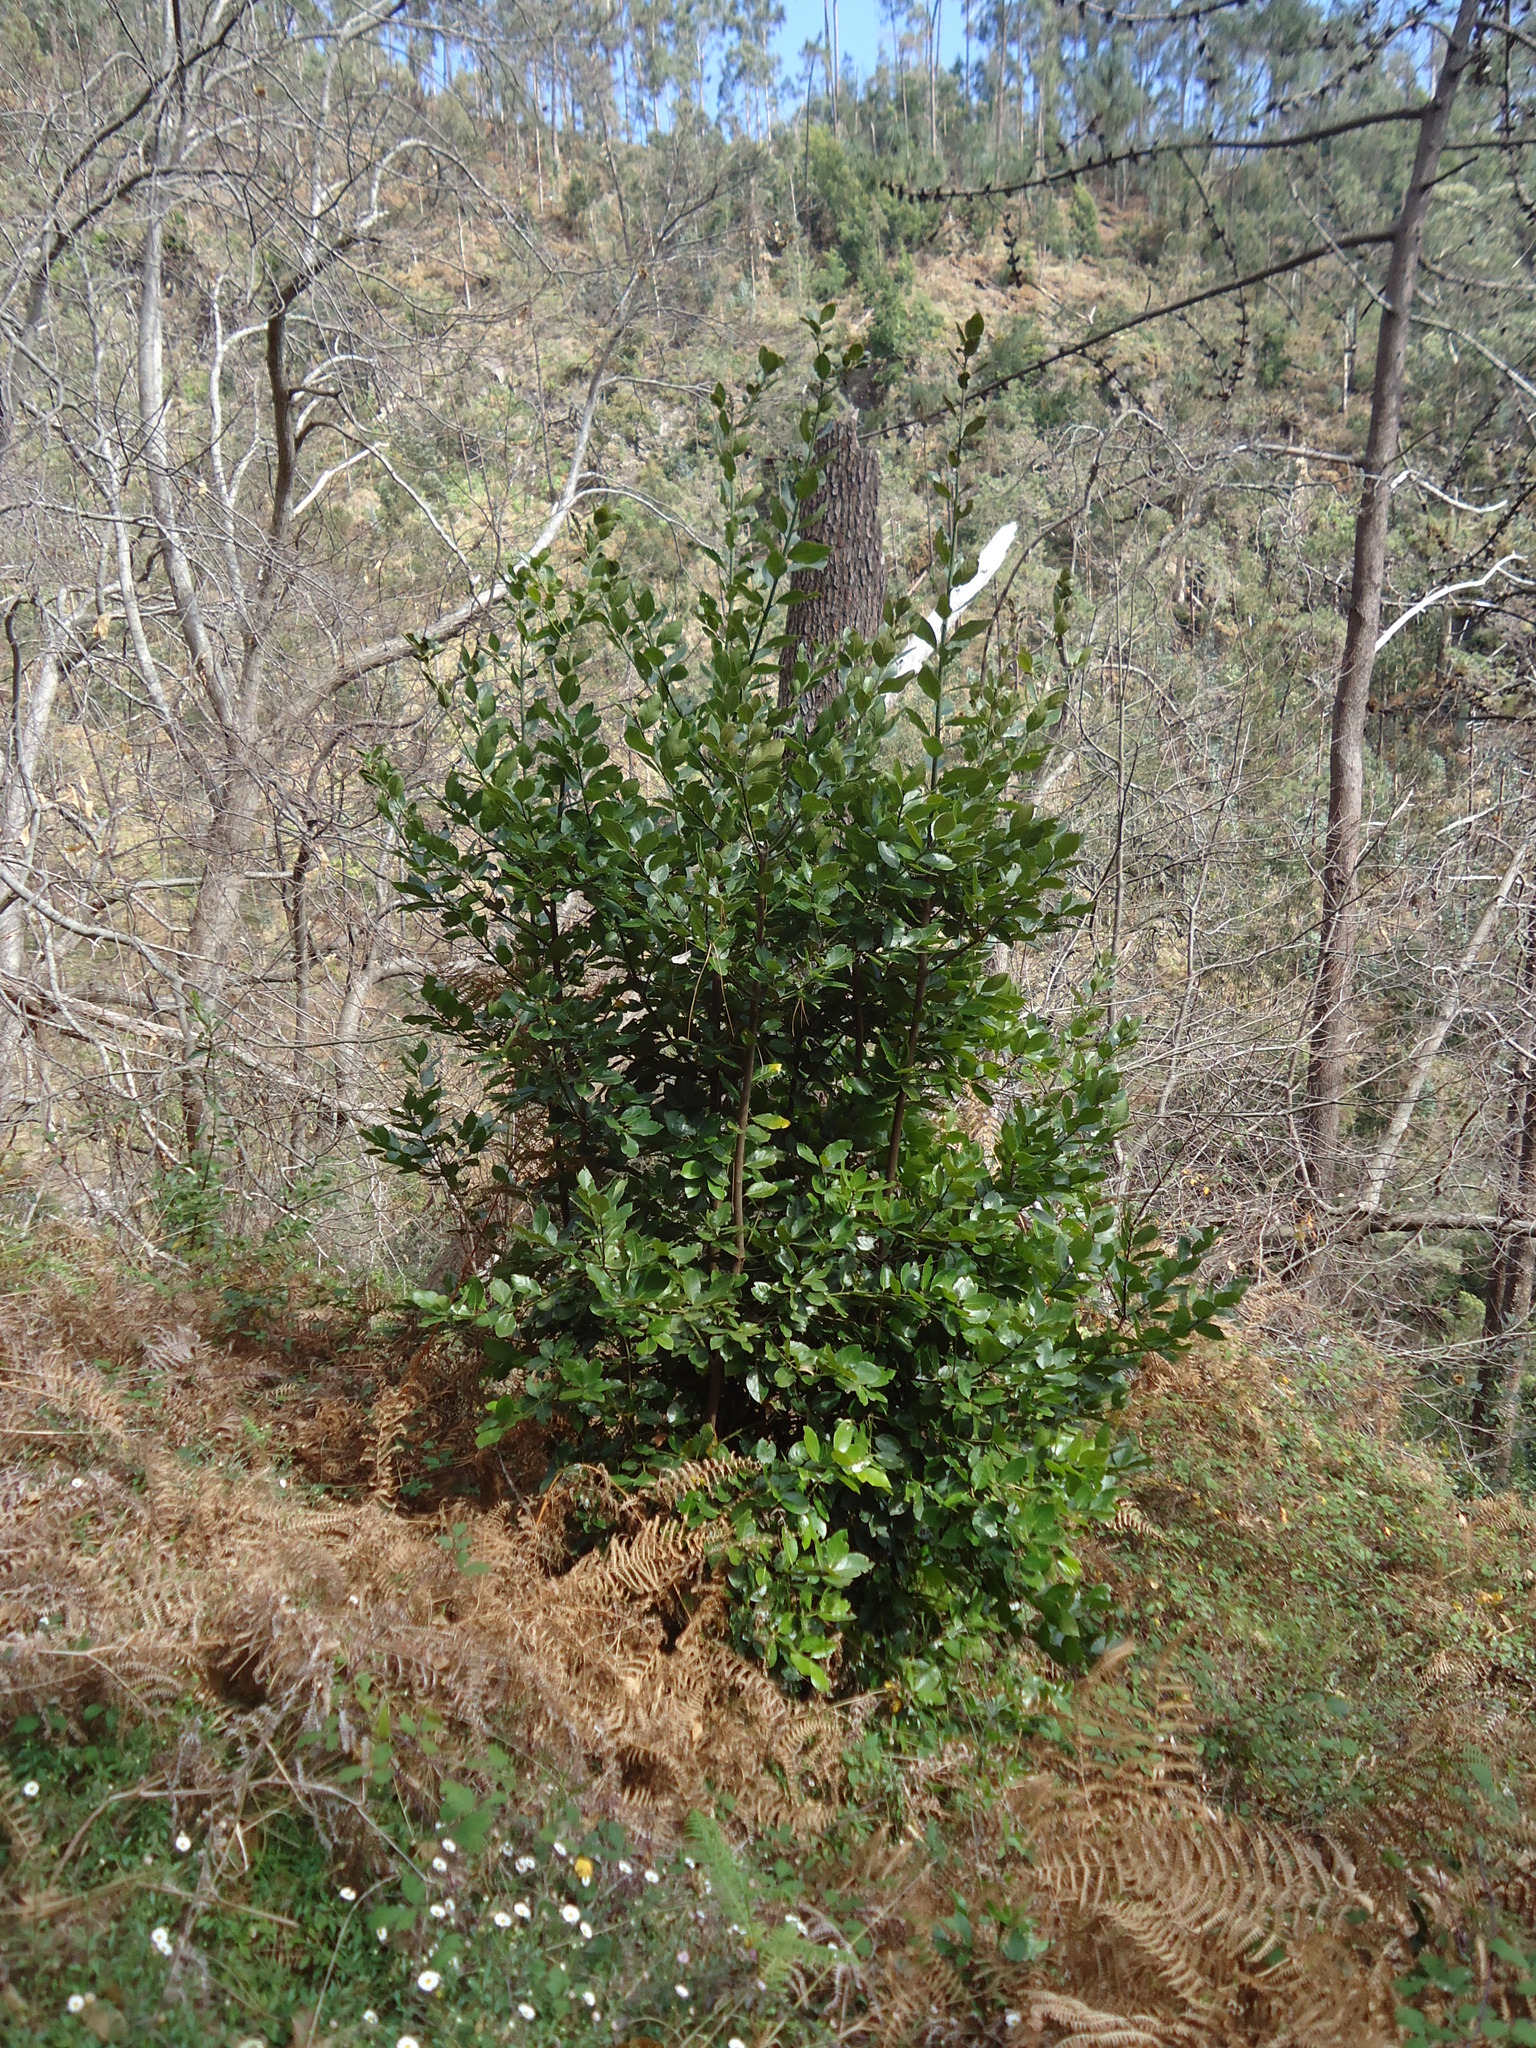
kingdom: Plantae
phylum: Tracheophyta
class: Magnoliopsida
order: Laurales
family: Lauraceae
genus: Laurus
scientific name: Laurus novocanariensis
